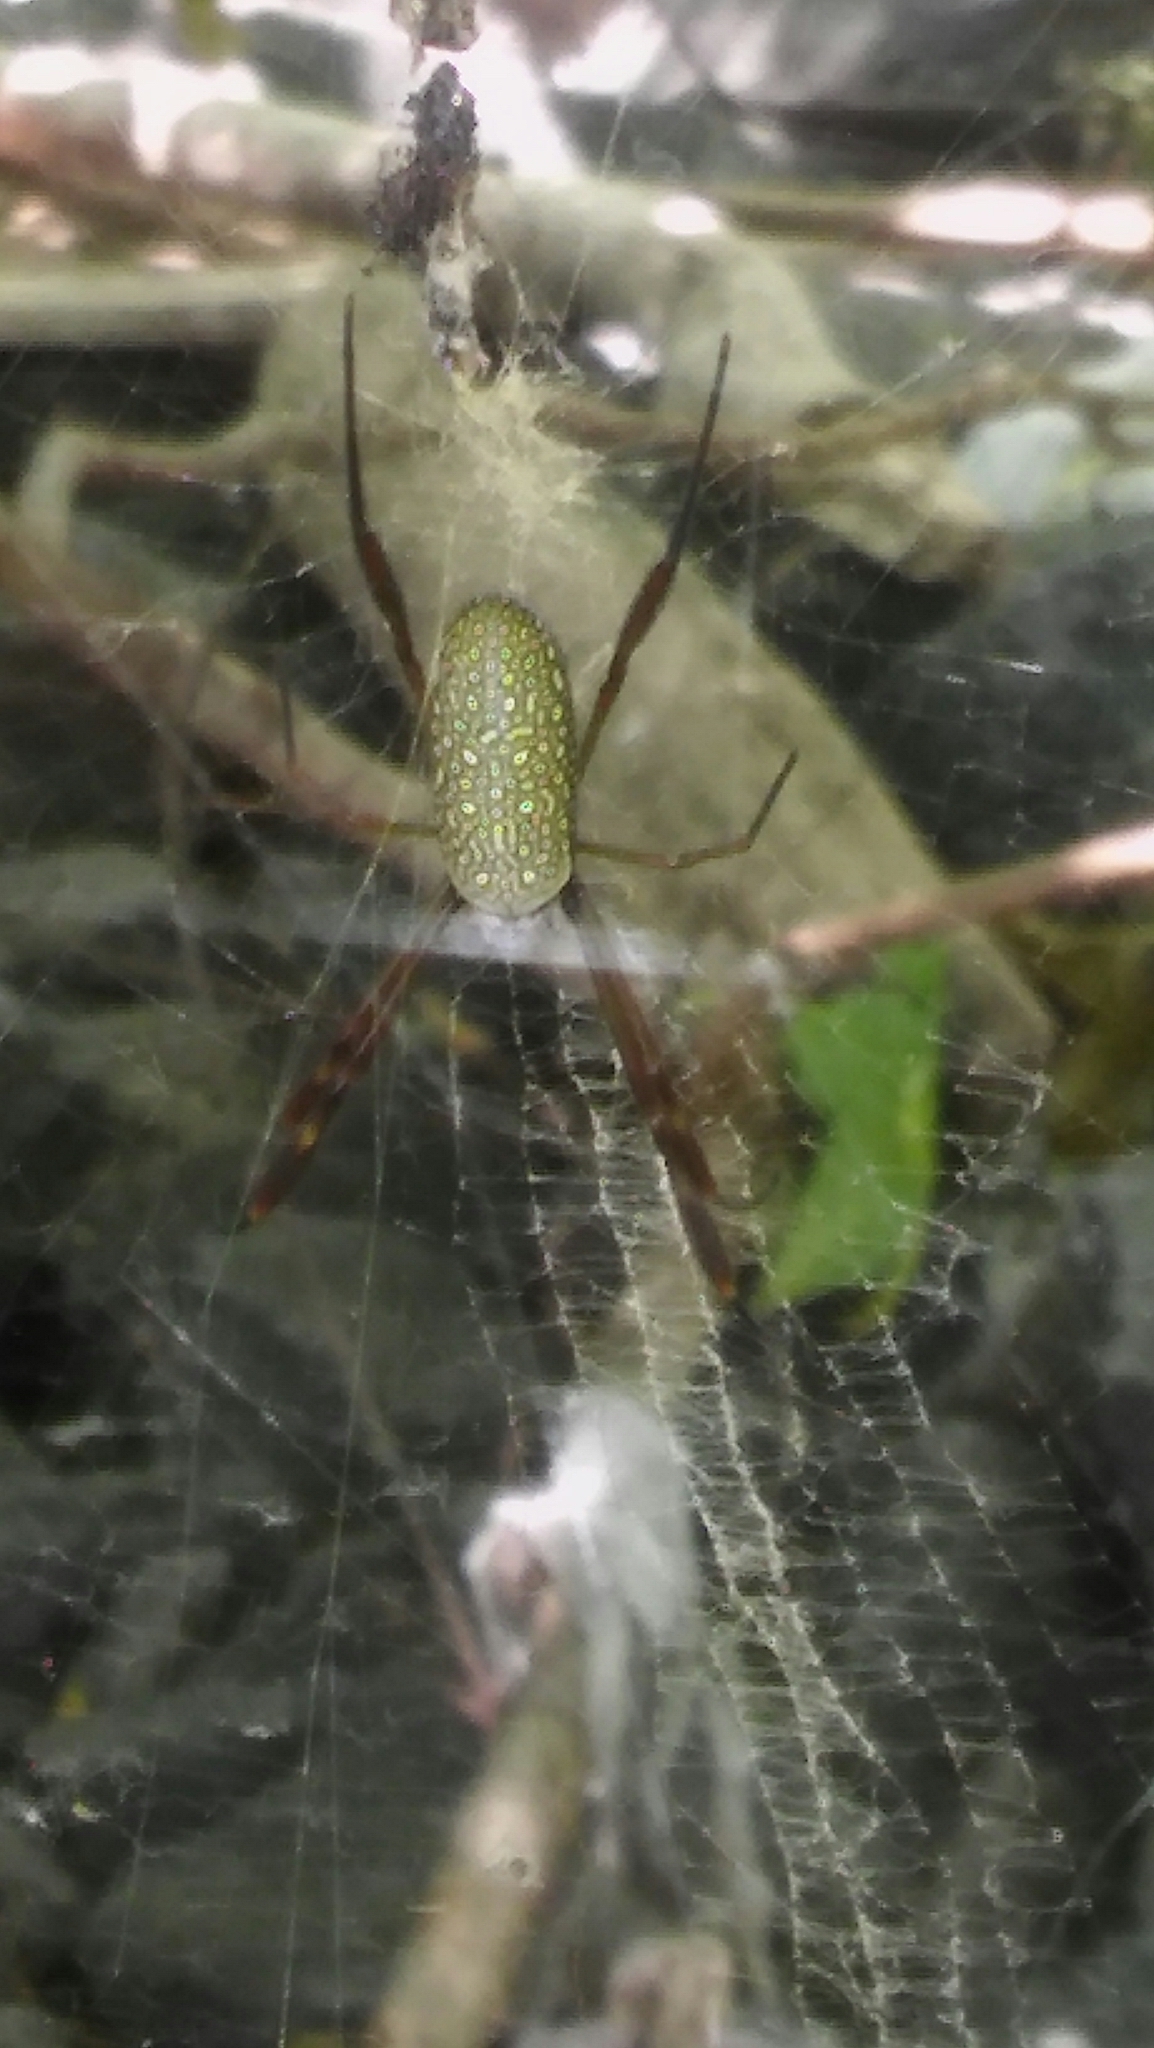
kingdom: Animalia
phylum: Arthropoda
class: Arachnida
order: Araneae
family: Araneidae
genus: Trichonephila
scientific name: Trichonephila clavipes
